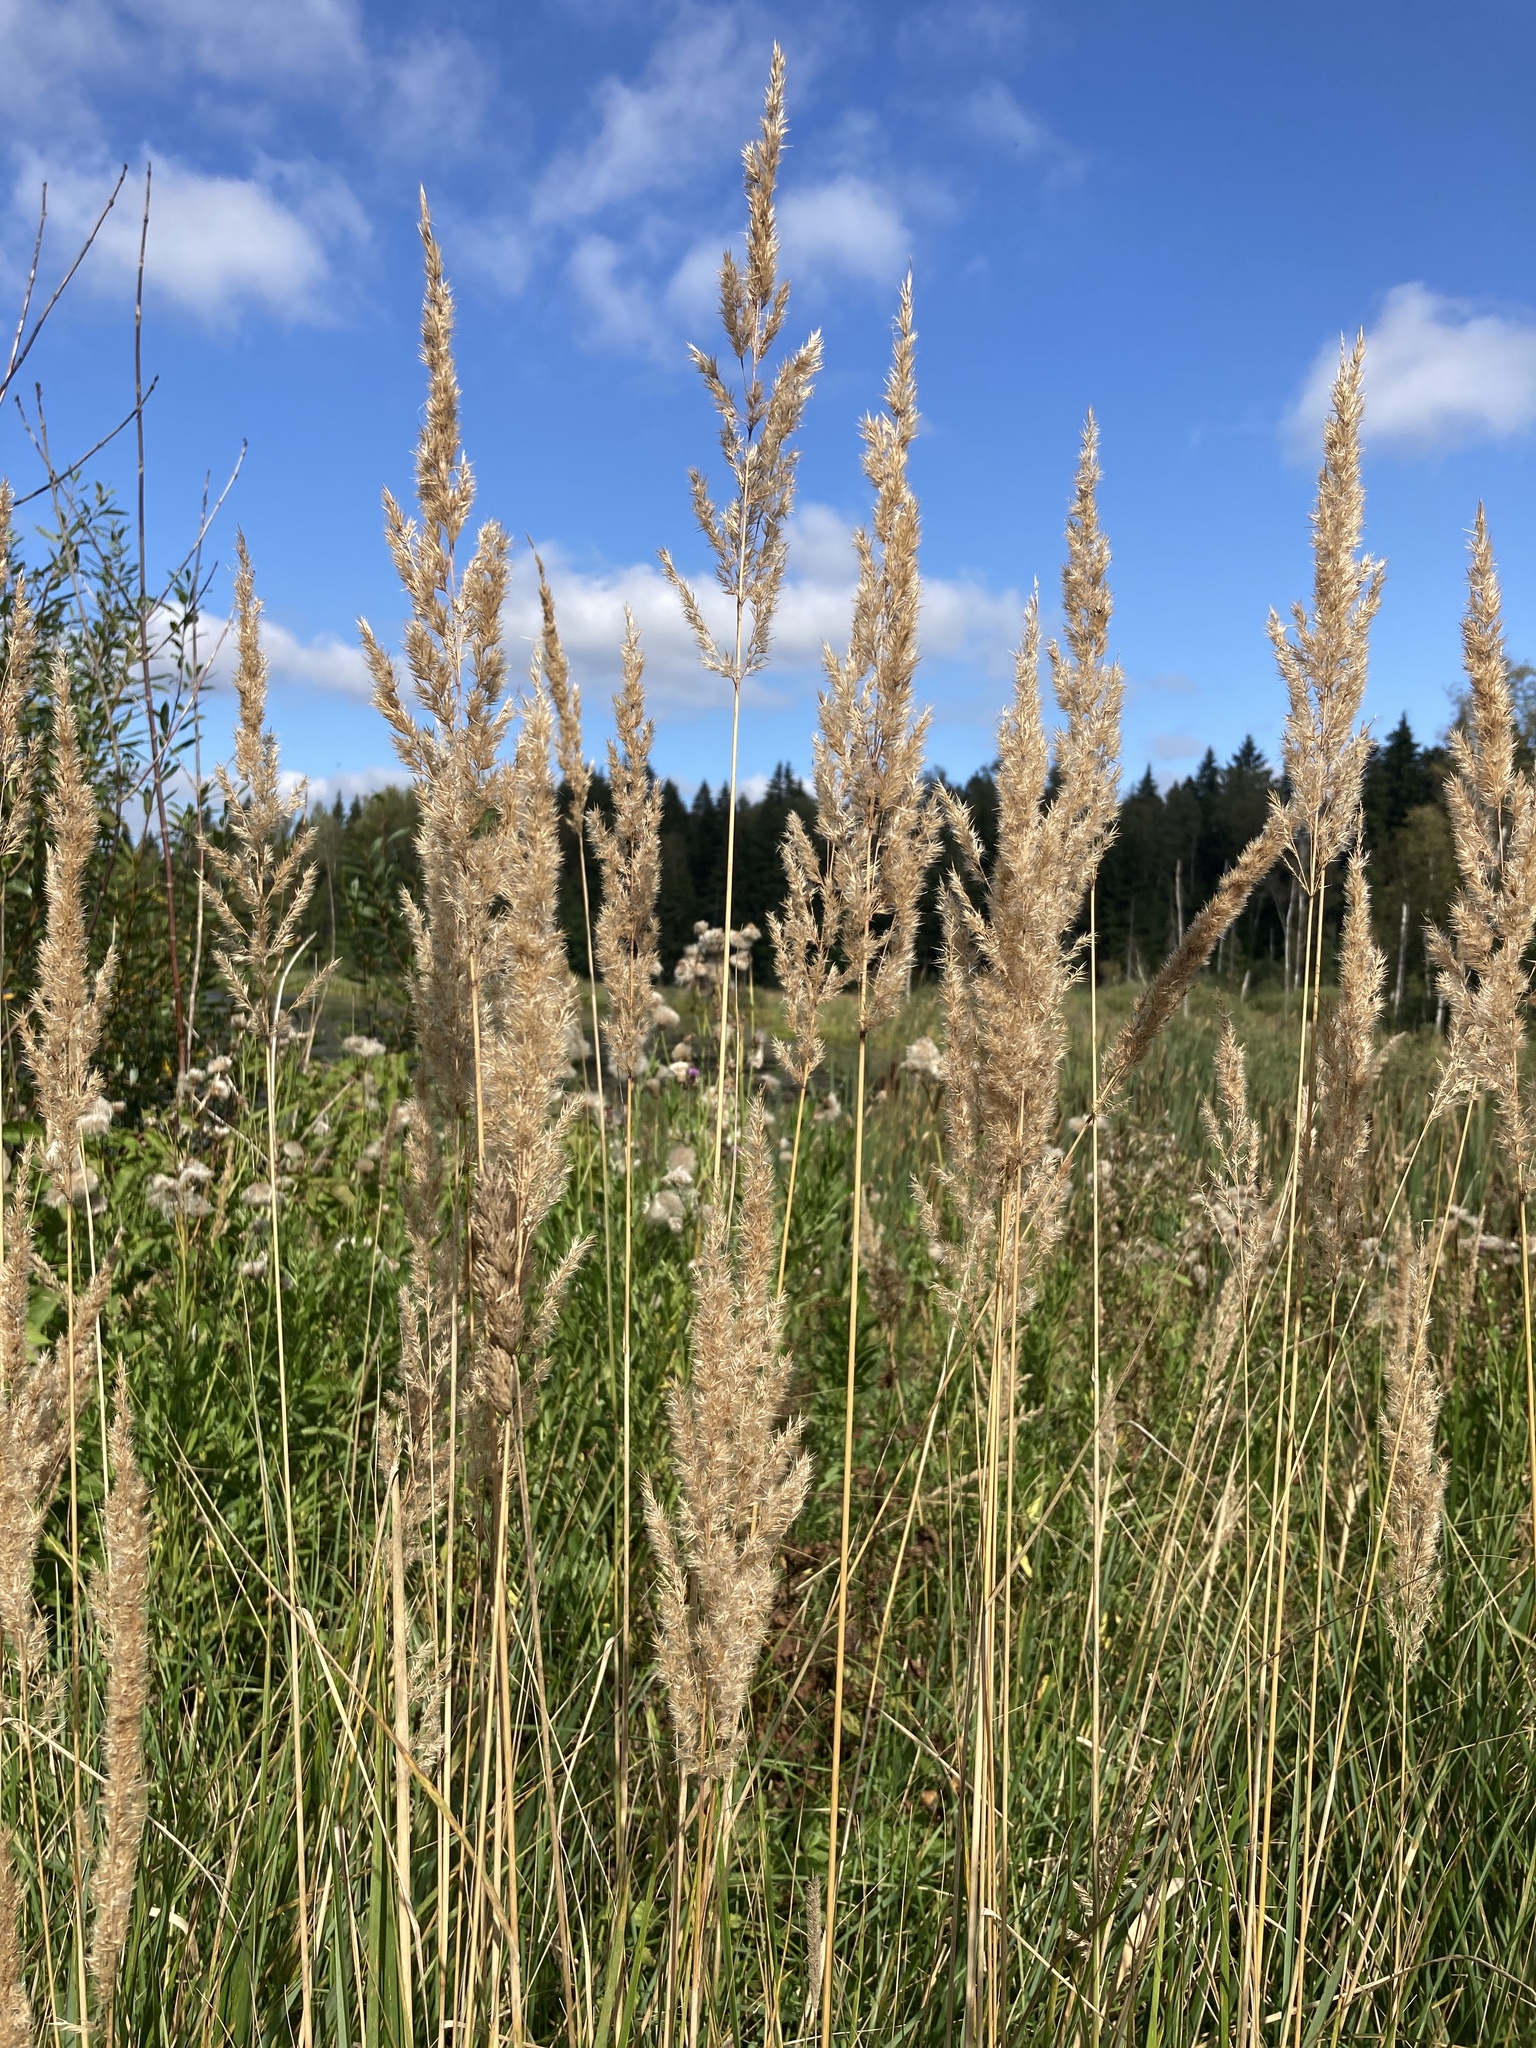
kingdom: Plantae
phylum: Tracheophyta
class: Liliopsida
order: Poales
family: Poaceae
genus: Calamagrostis
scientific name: Calamagrostis epigejos
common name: Wood small-reed
